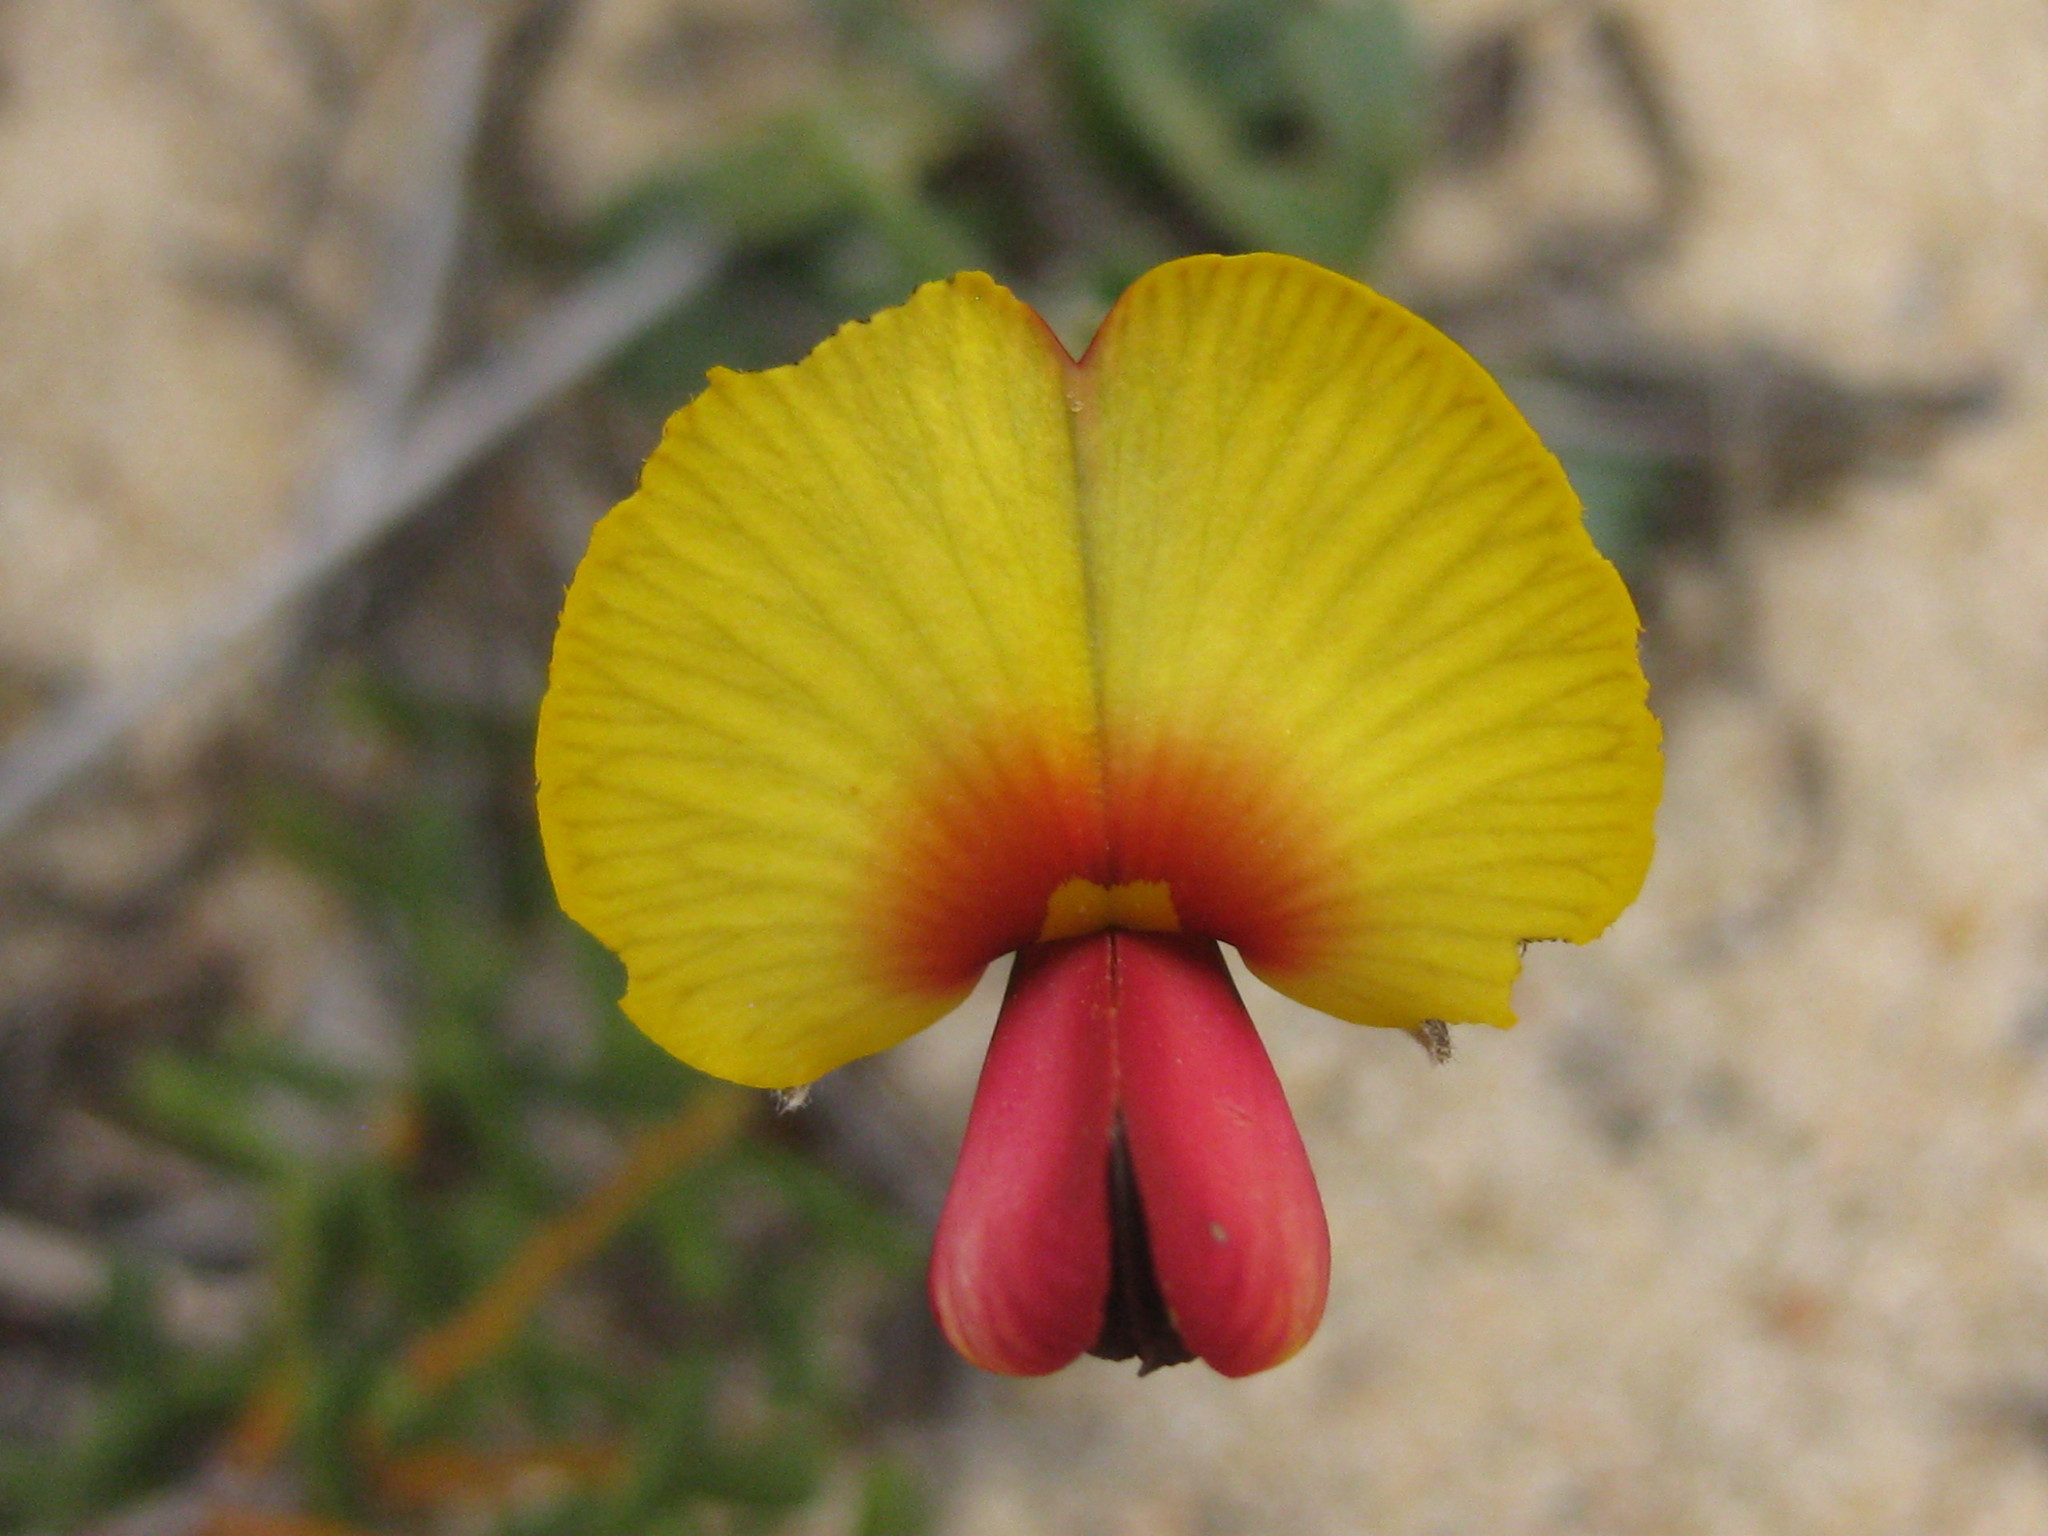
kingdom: Plantae
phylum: Tracheophyta
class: Magnoliopsida
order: Fabales
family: Fabaceae
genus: Isotropis
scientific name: Isotropis cuneifolia
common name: Granny bonnets
